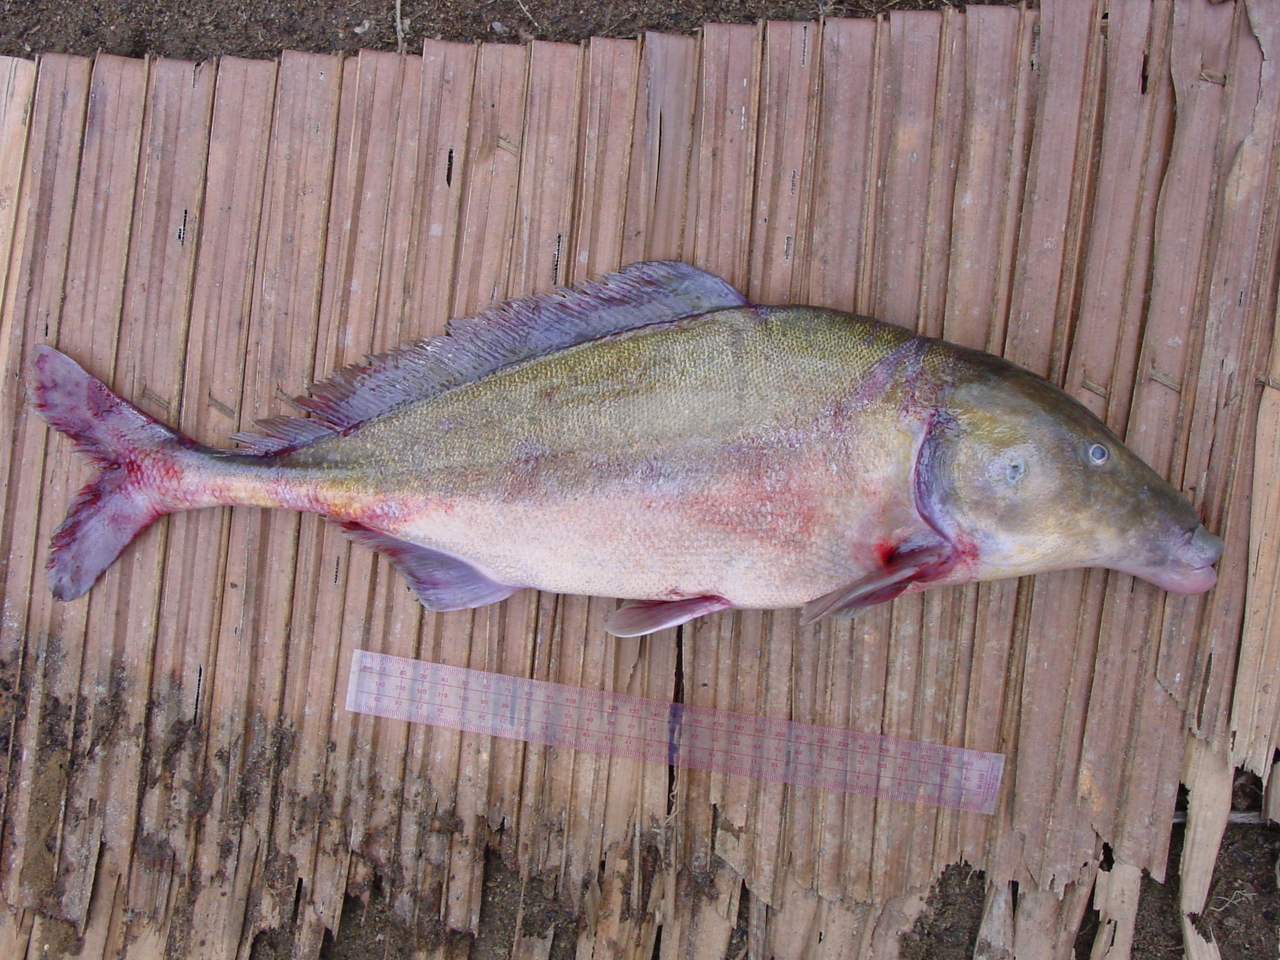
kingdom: Animalia
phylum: Chordata
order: Osteoglossiformes
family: Mormyridae
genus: Mormyrus
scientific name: Mormyrus caballus
